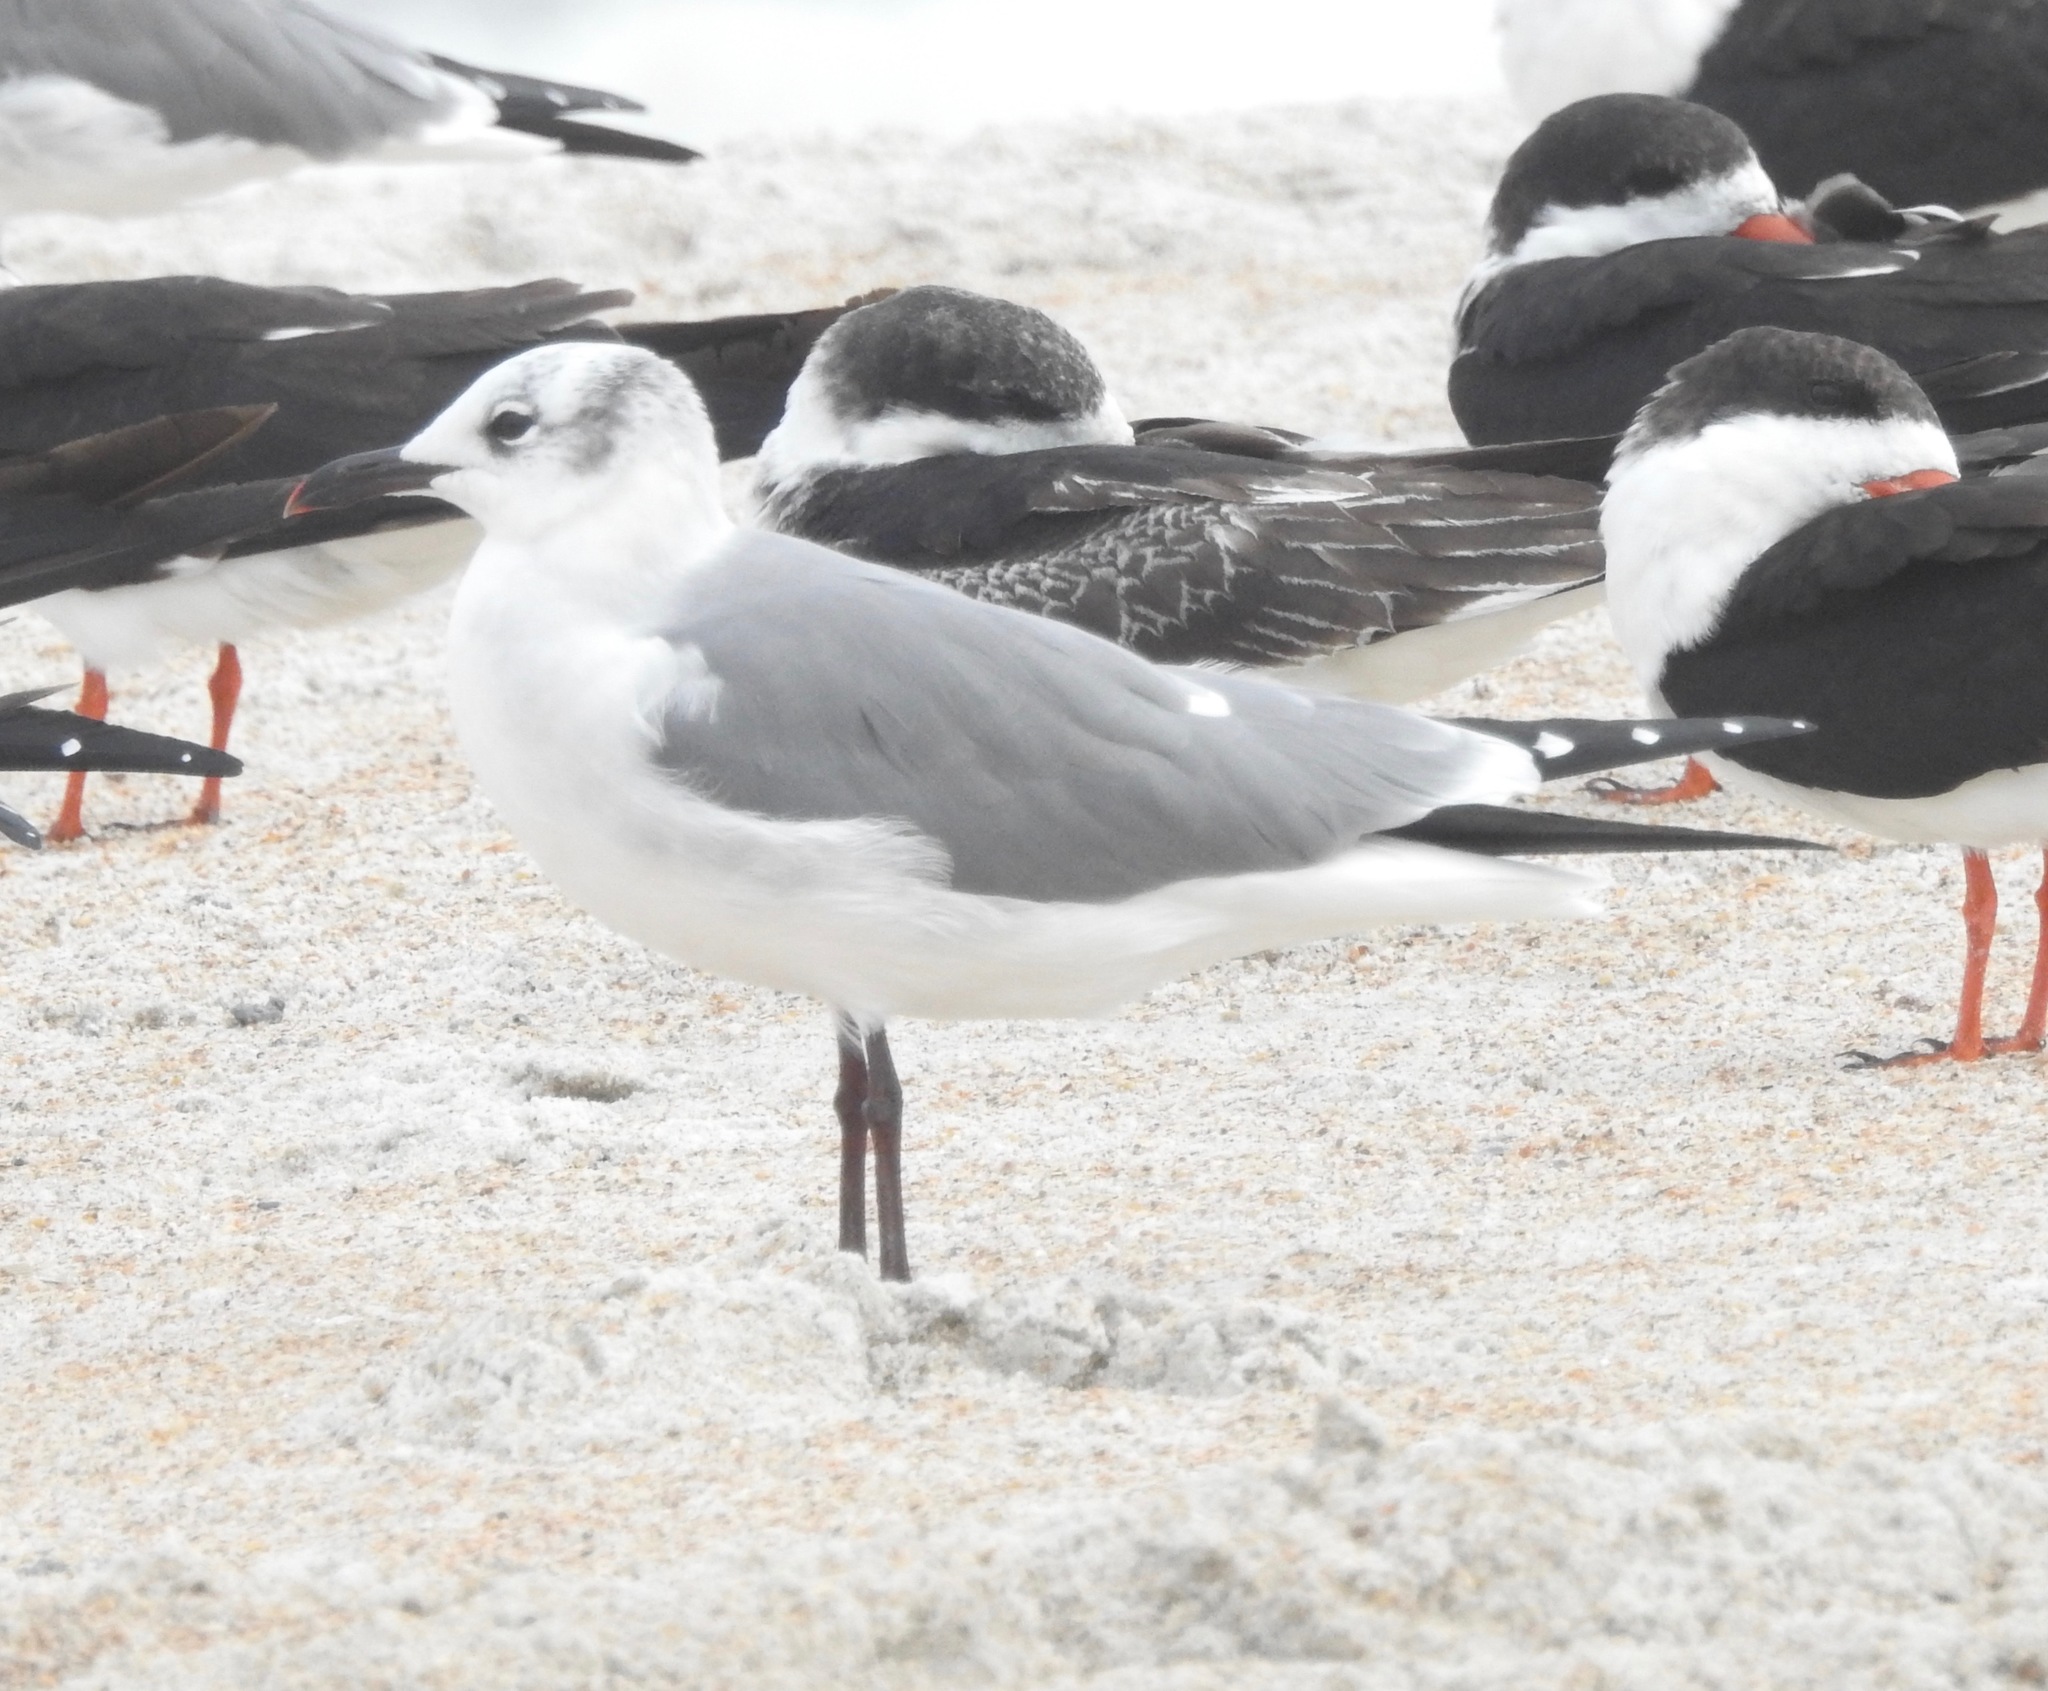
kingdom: Animalia
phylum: Chordata
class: Aves
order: Charadriiformes
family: Laridae
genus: Leucophaeus
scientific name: Leucophaeus atricilla
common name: Laughing gull
